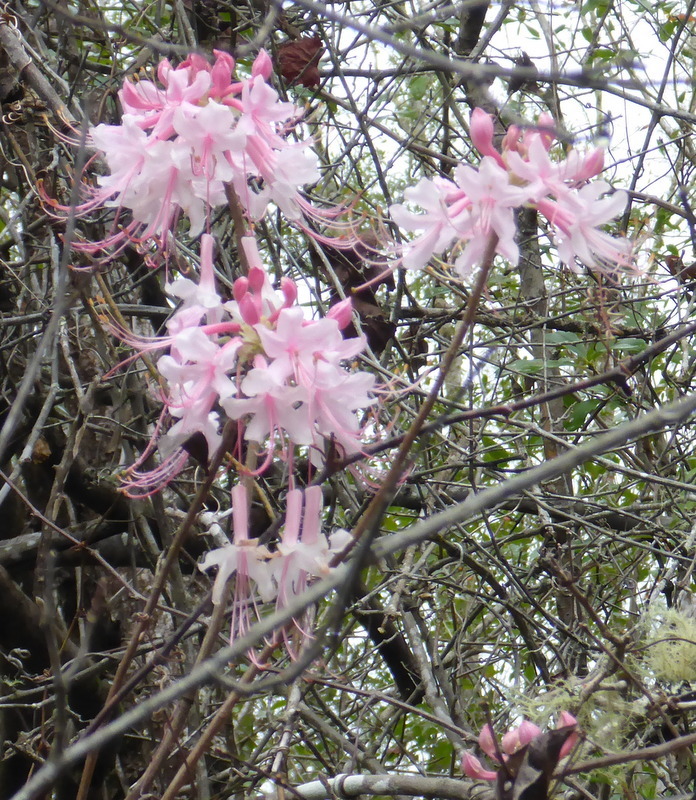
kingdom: Plantae
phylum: Tracheophyta
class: Magnoliopsida
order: Ericales
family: Ericaceae
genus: Rhododendron
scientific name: Rhododendron canescens
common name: Mountain azalea
